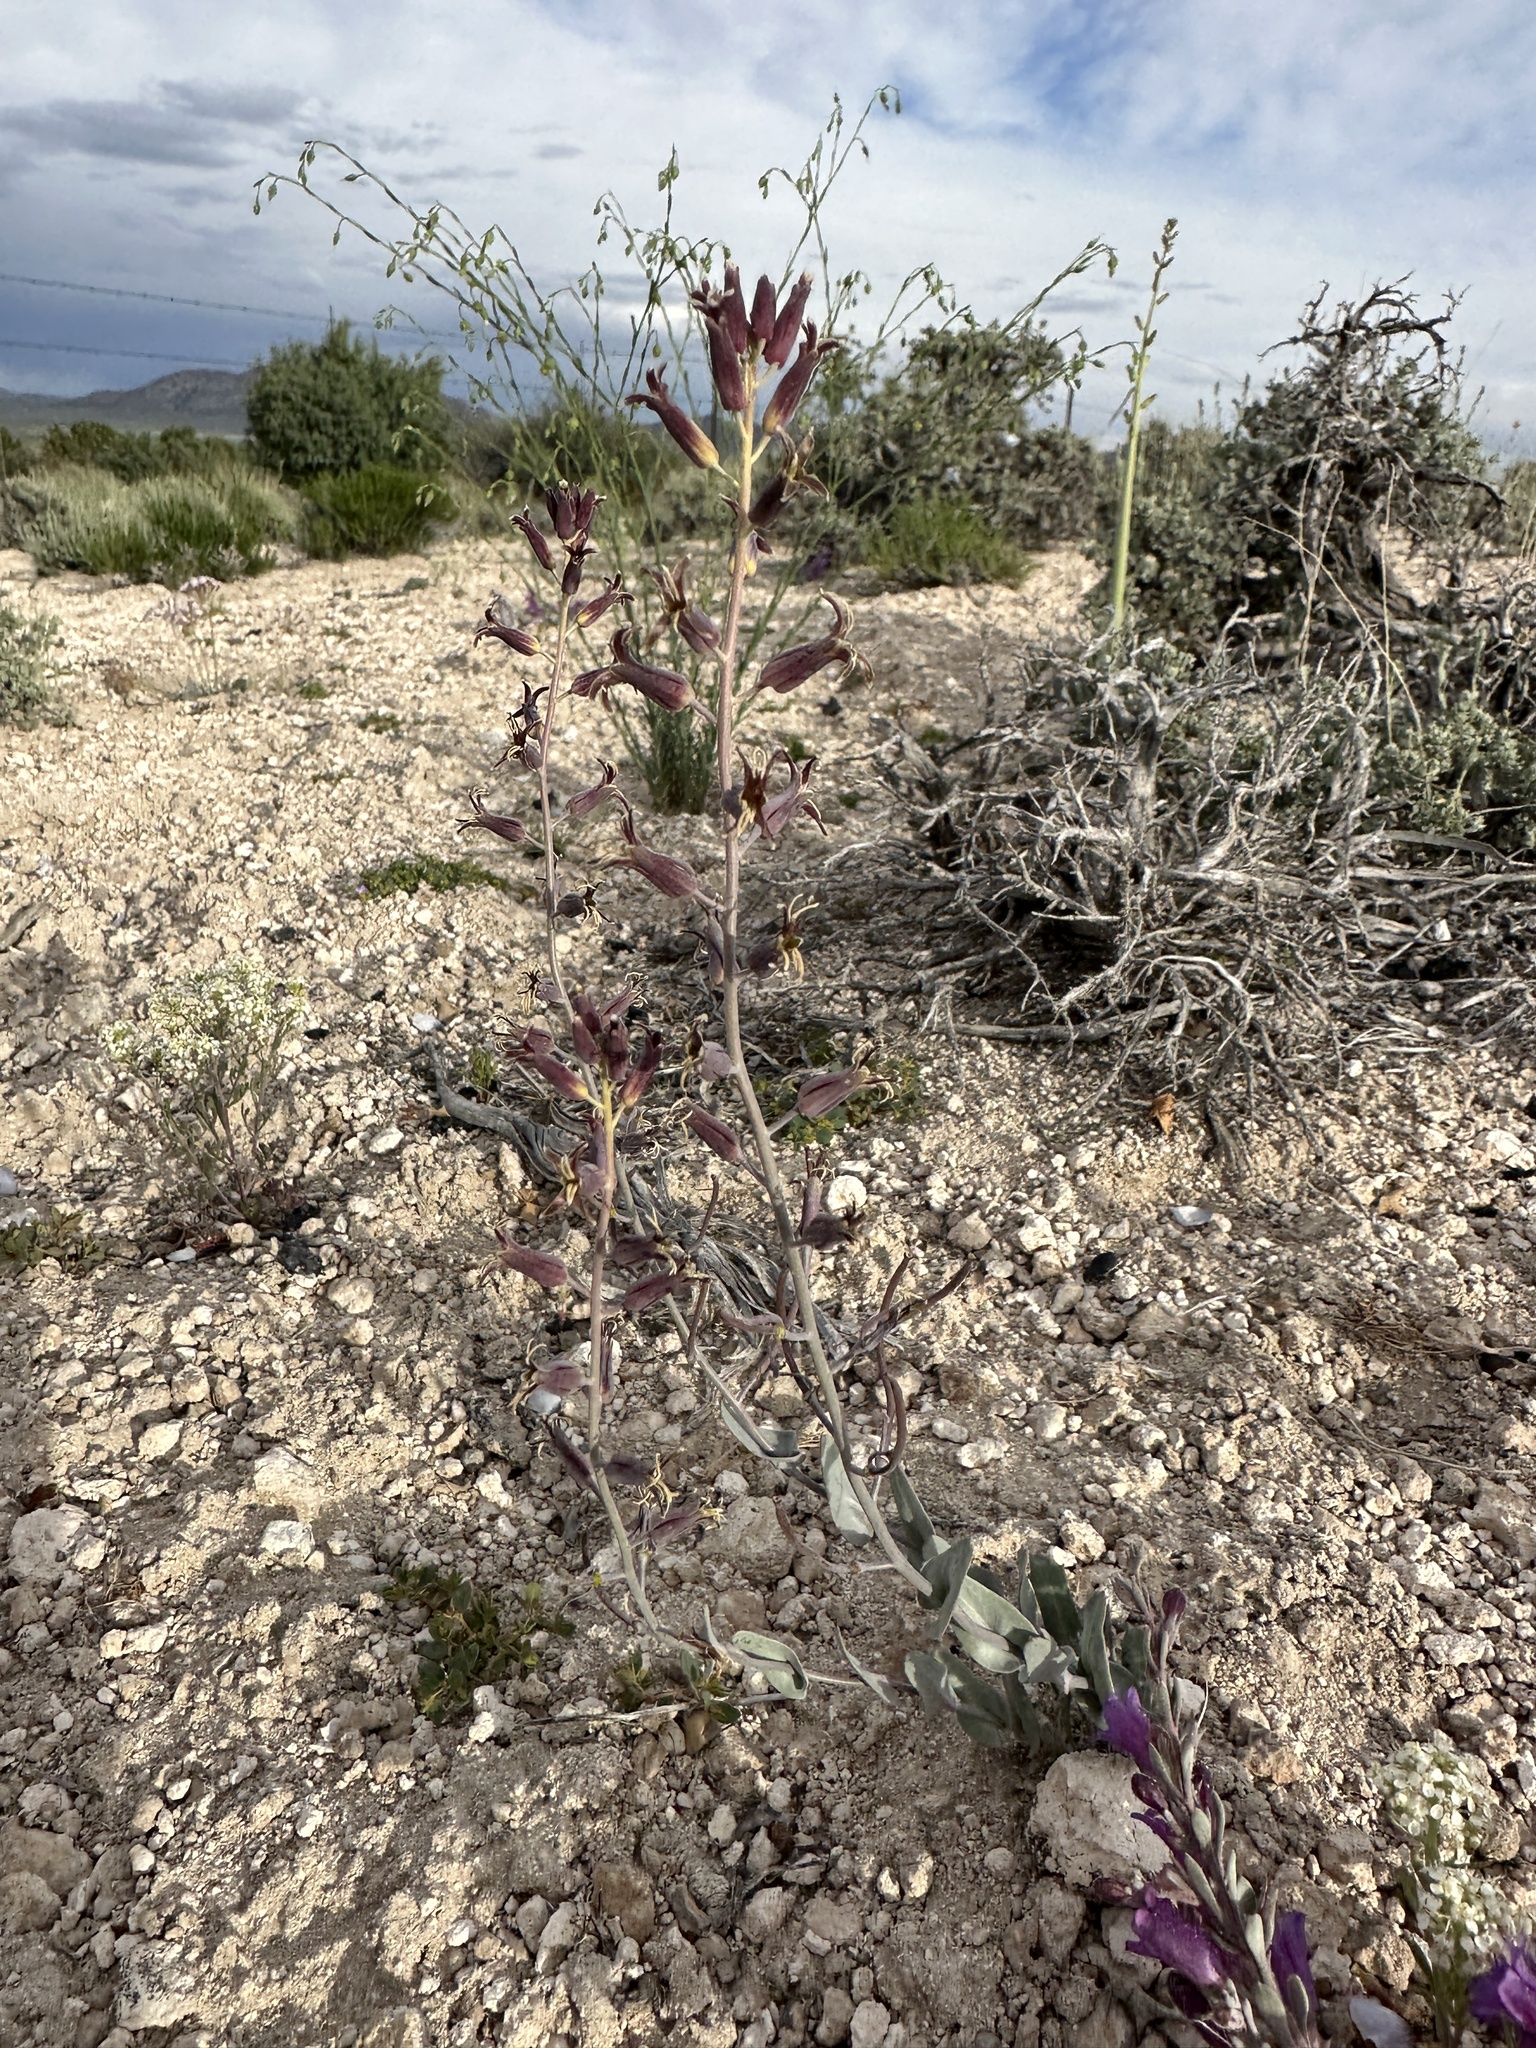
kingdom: Plantae
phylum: Tracheophyta
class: Magnoliopsida
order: Brassicales
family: Brassicaceae
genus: Streptanthus
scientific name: Streptanthus cordatus
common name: Heart-leaf jewel-flower
